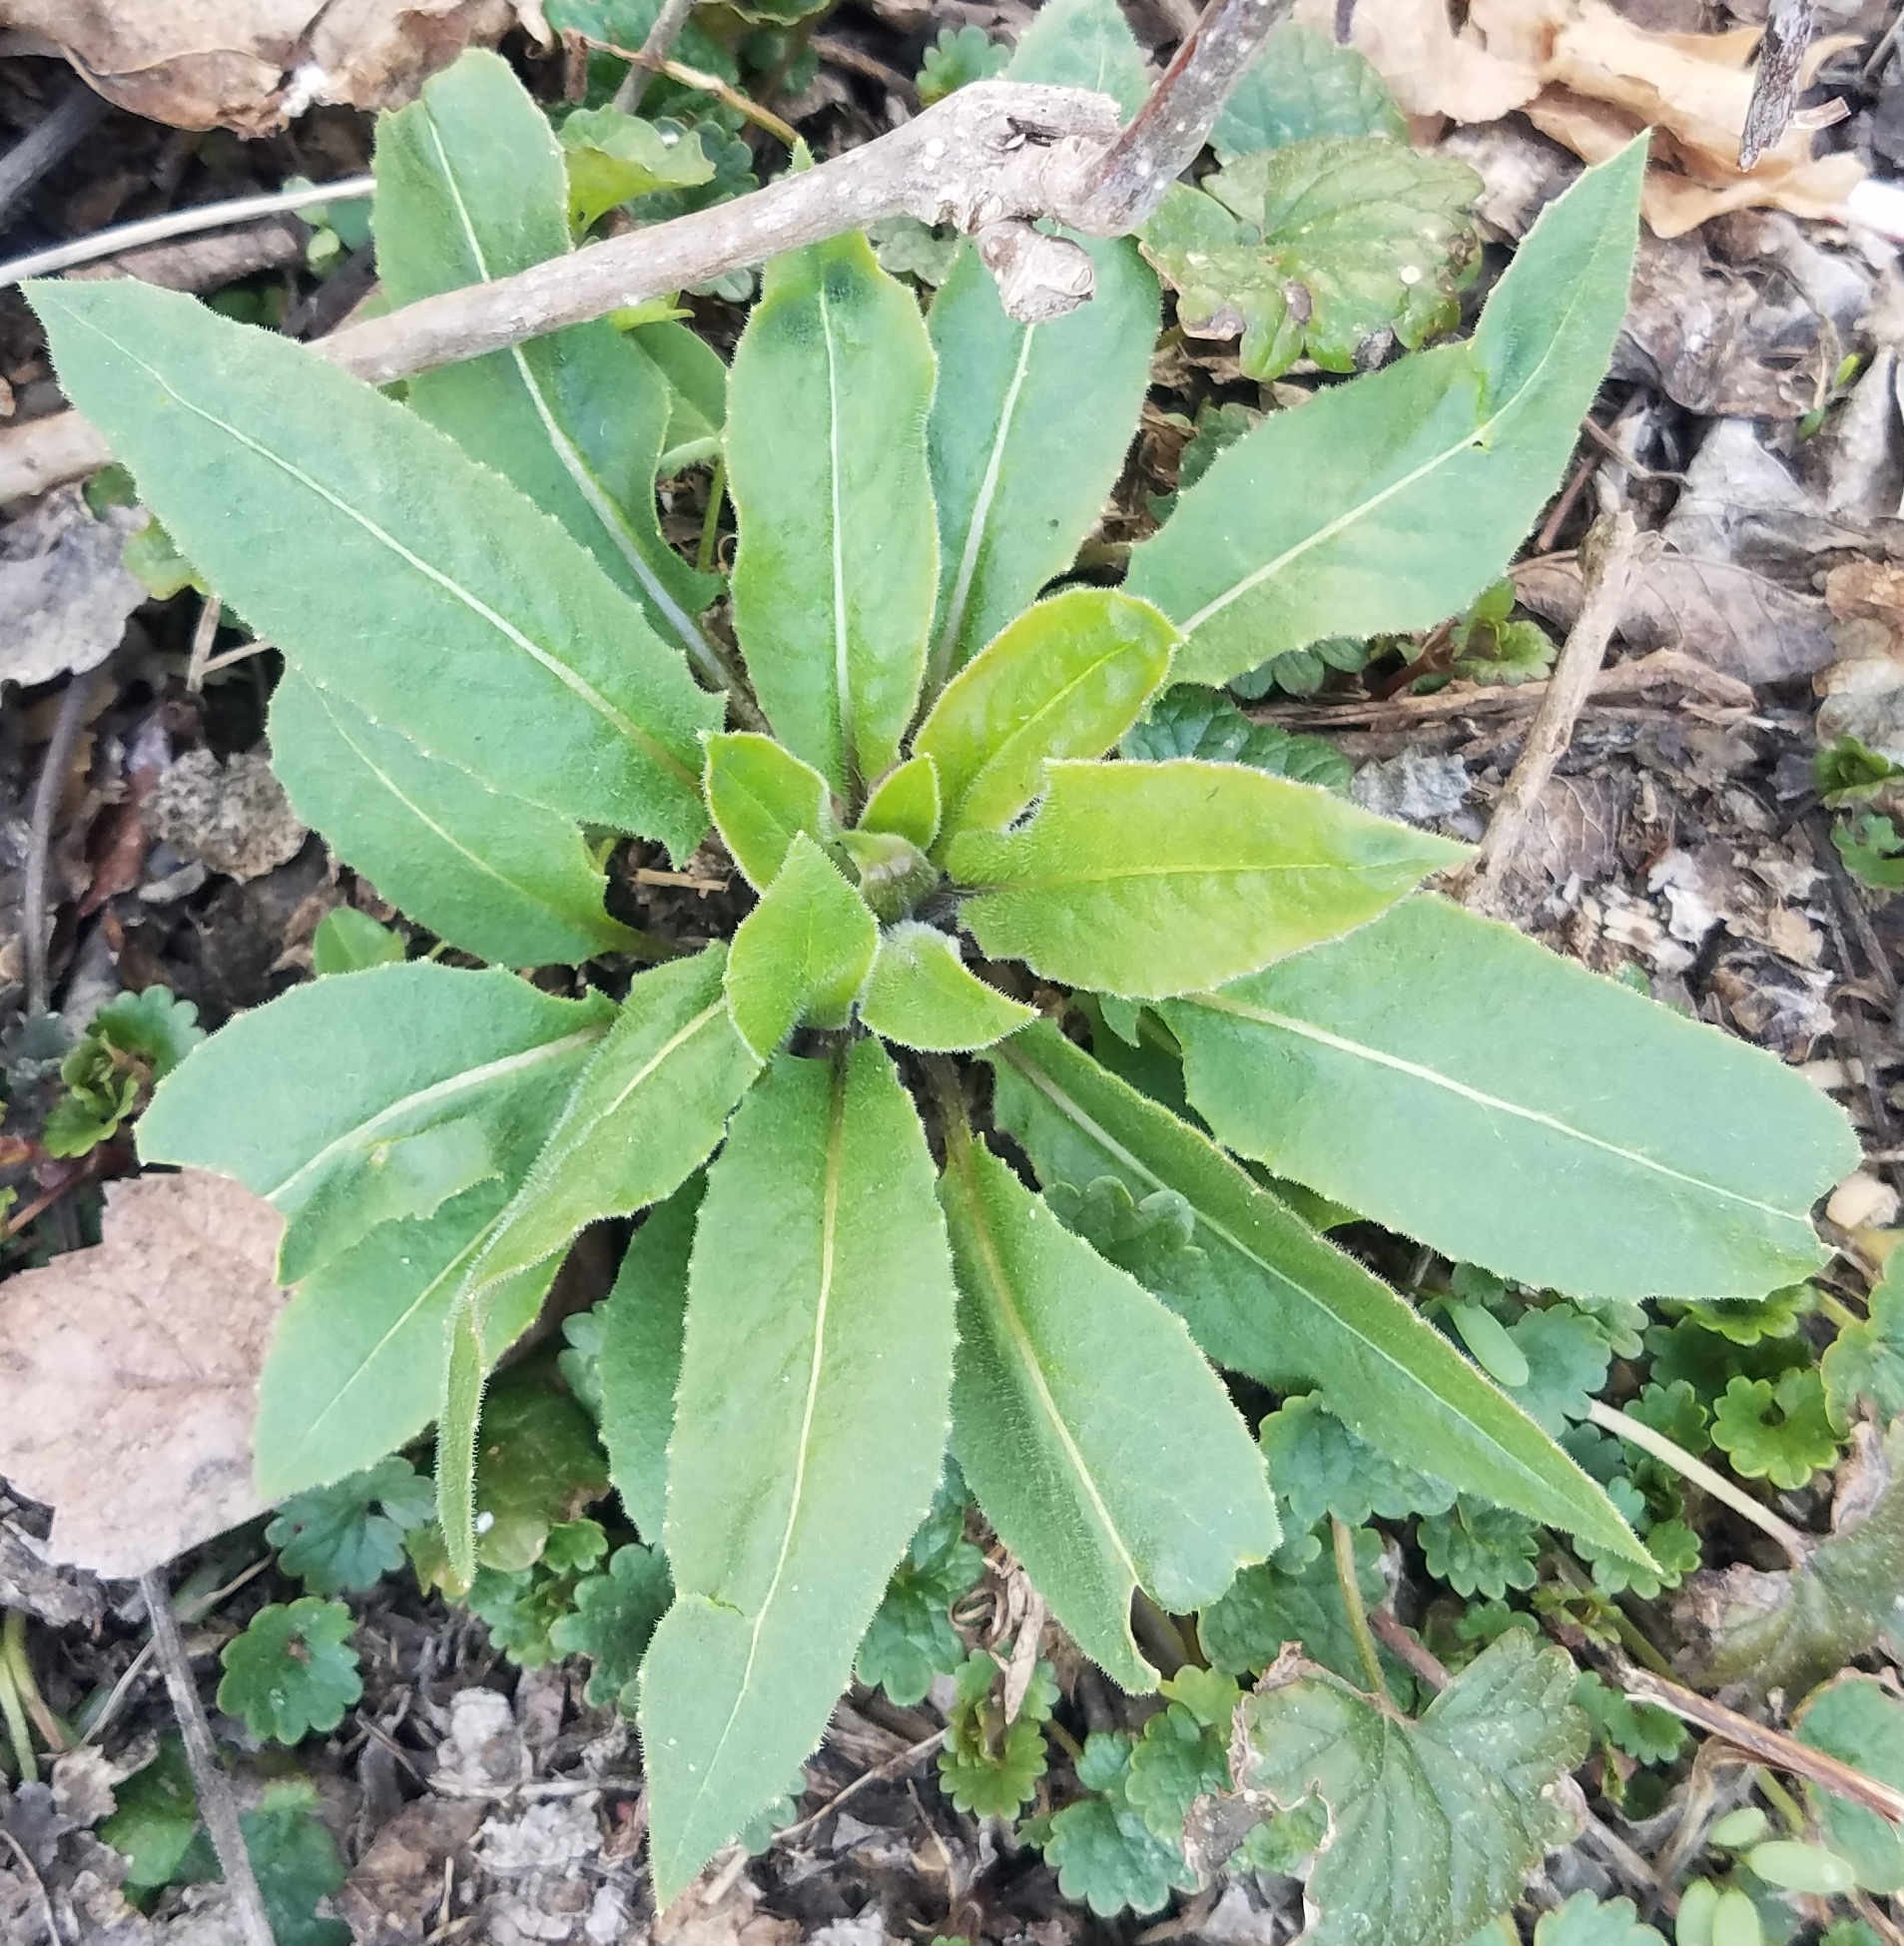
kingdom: Plantae
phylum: Tracheophyta
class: Magnoliopsida
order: Brassicales
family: Brassicaceae
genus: Hesperis
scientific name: Hesperis matronalis
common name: Dame's-violet
